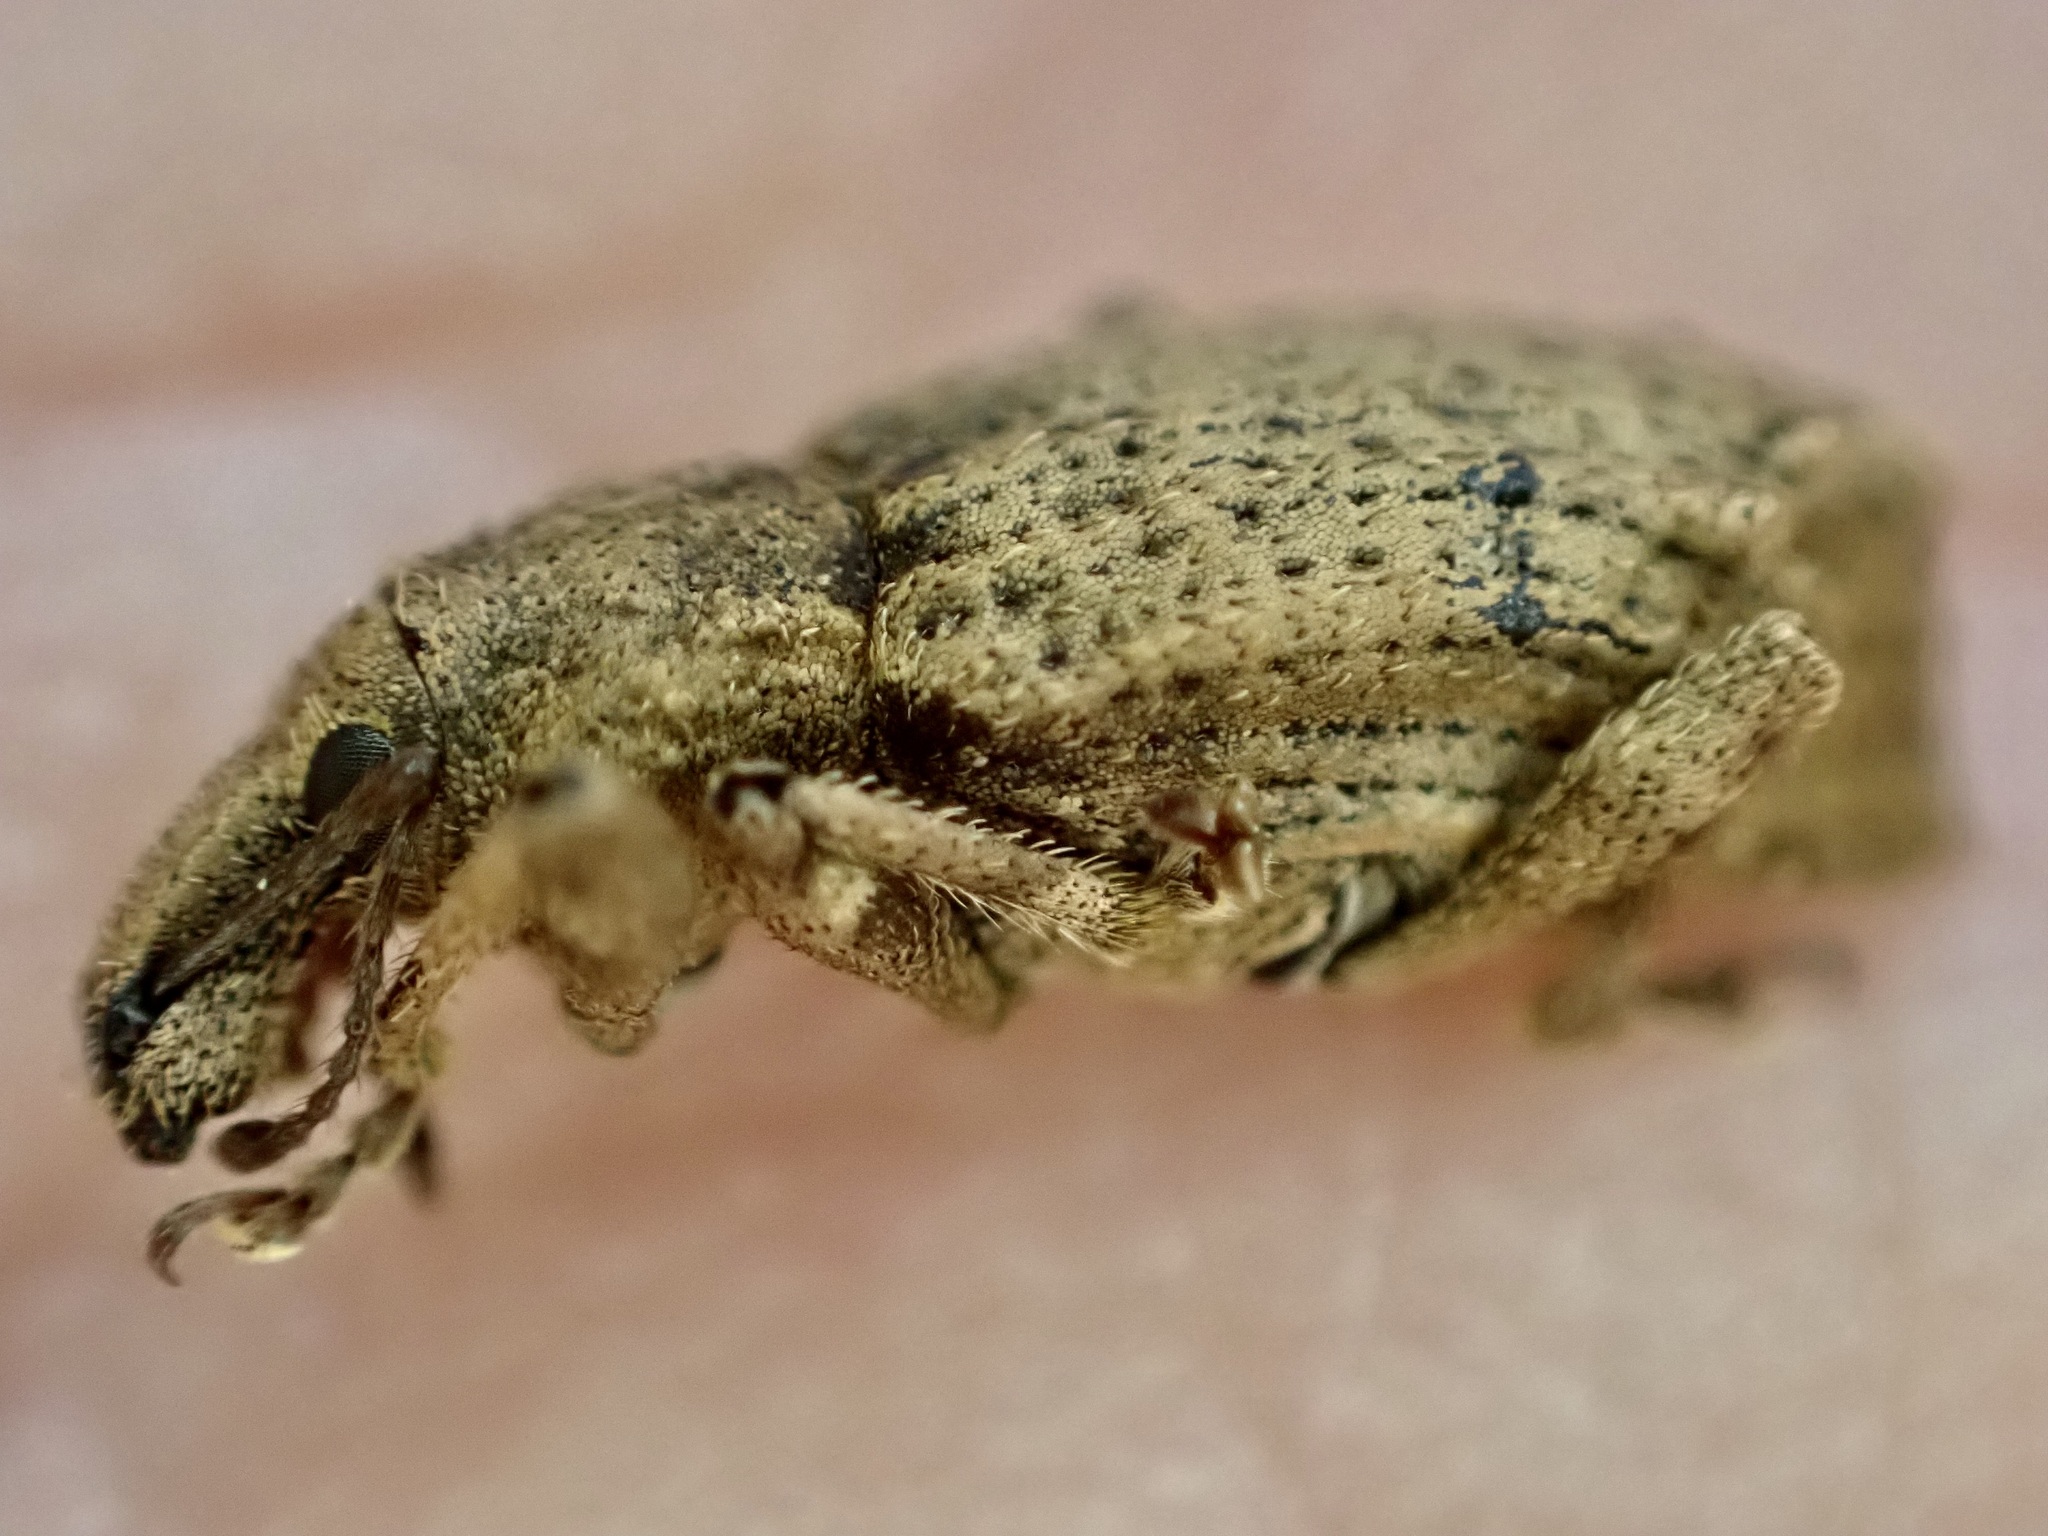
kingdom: Animalia
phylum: Arthropoda
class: Insecta
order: Coleoptera
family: Curculionidae
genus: Chalepistes
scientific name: Chalepistes rhesus
